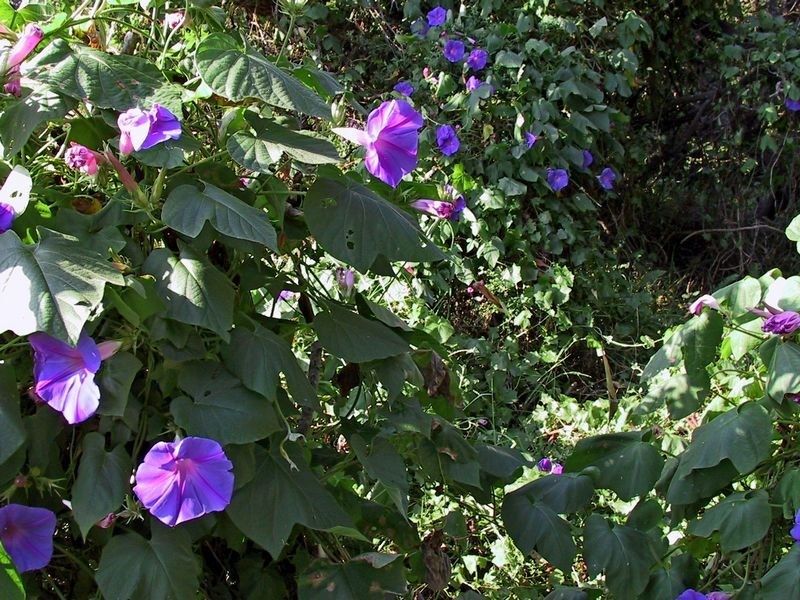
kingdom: Plantae
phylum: Tracheophyta
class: Magnoliopsida
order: Solanales
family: Convolvulaceae
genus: Ipomoea
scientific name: Ipomoea indica
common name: Blue dawnflower
